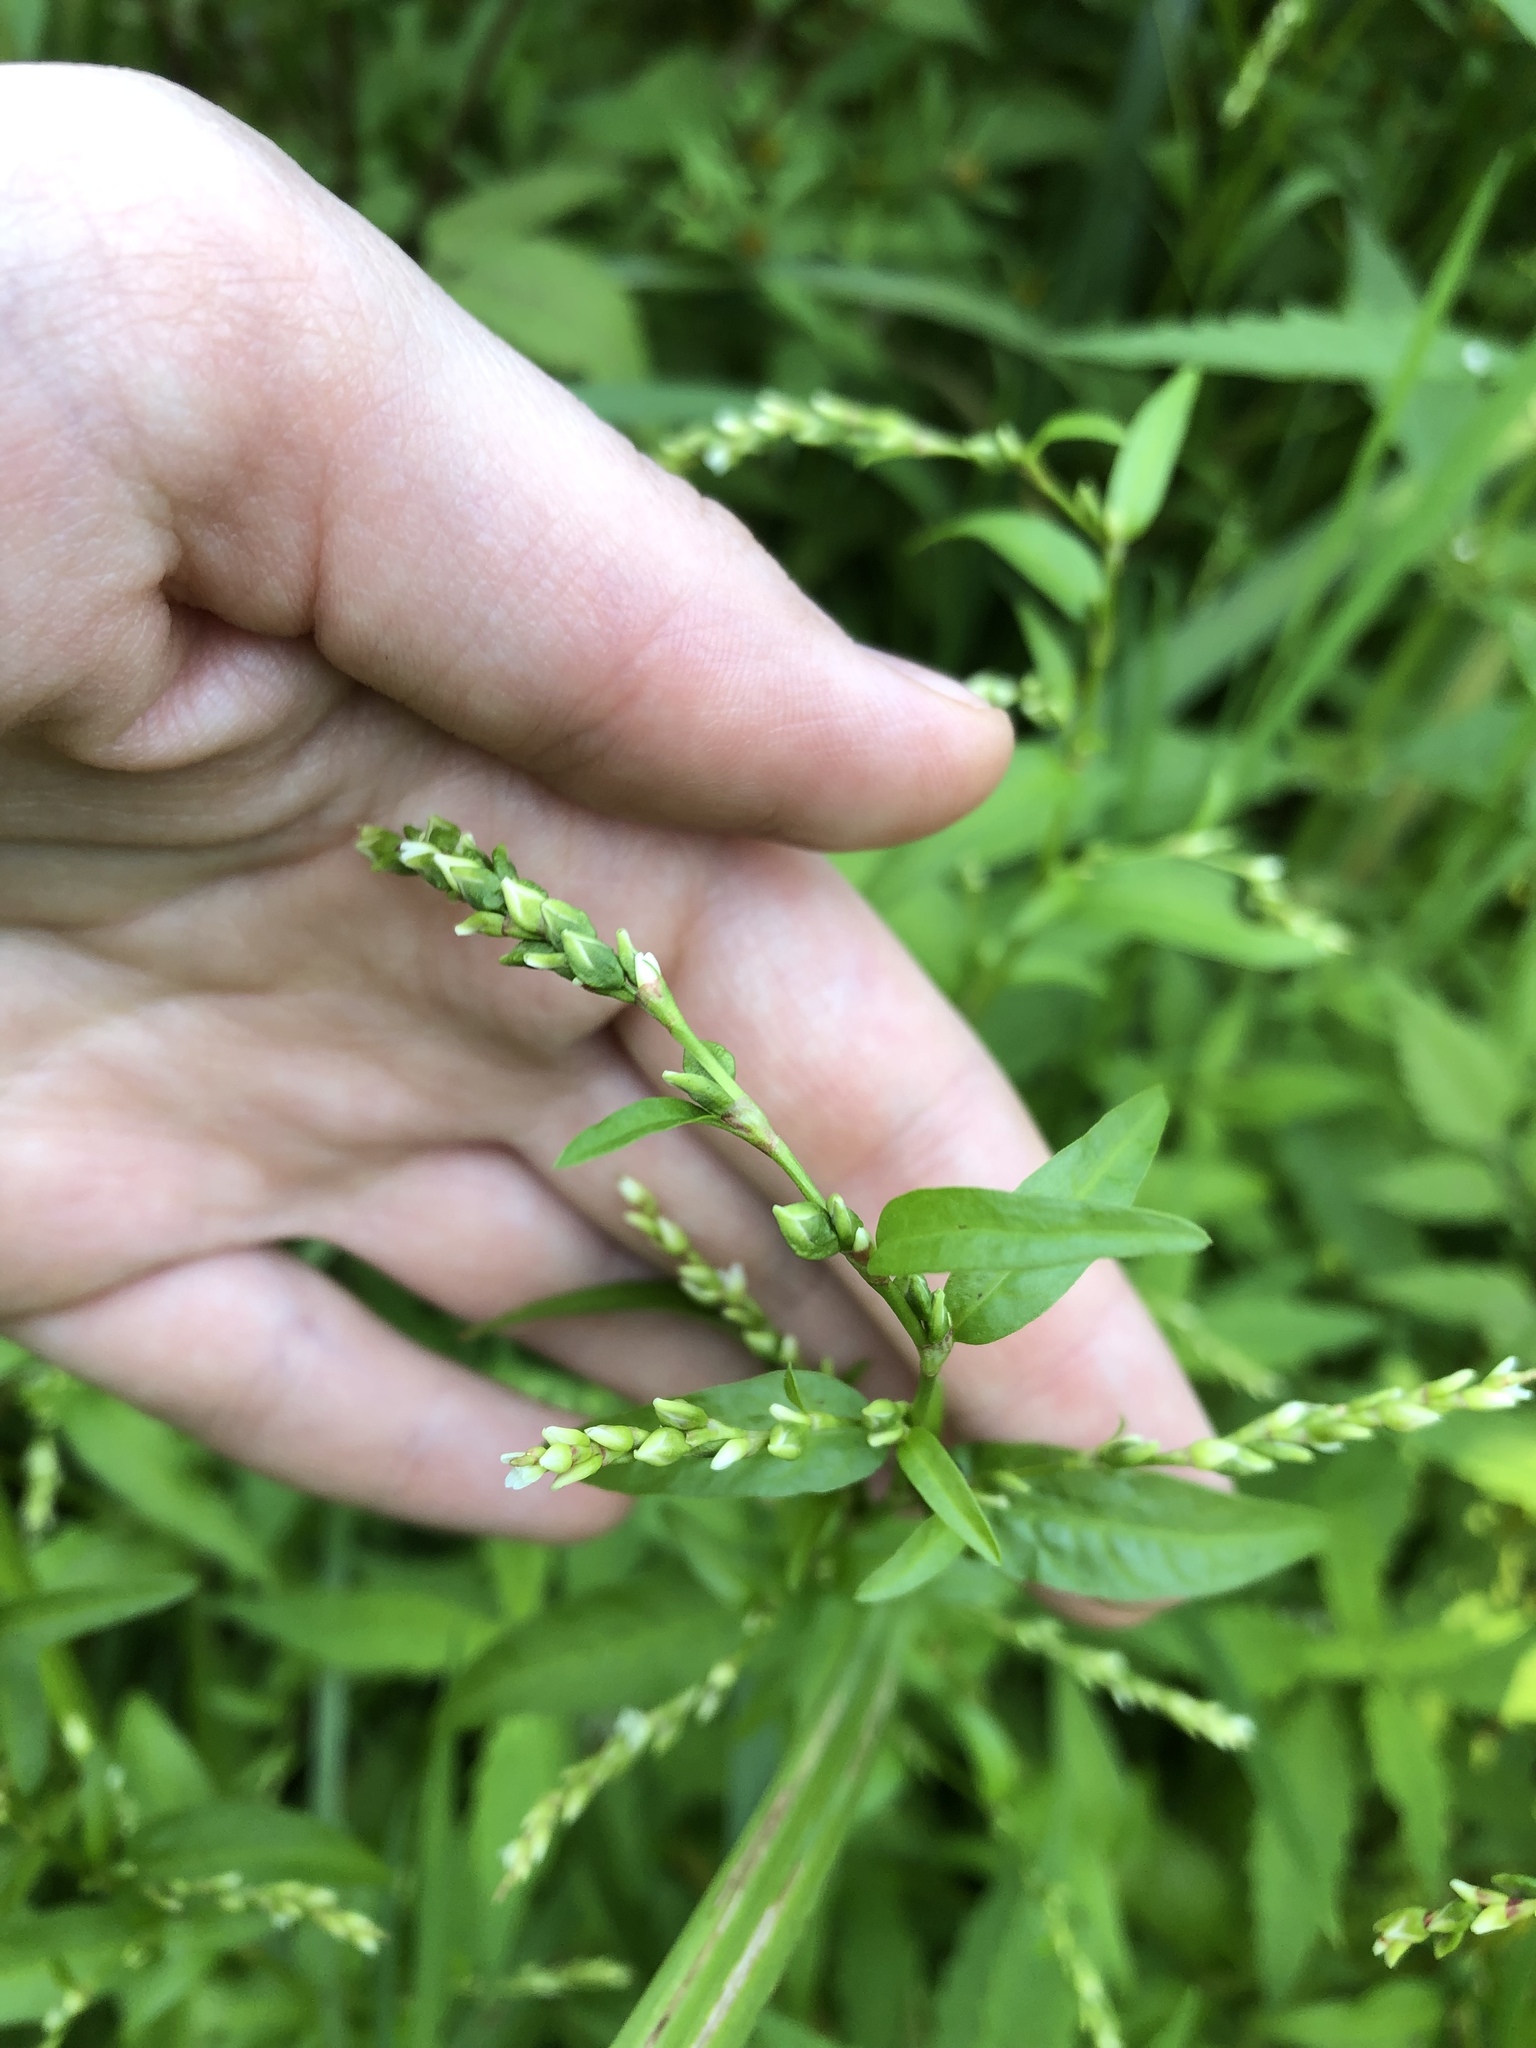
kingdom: Plantae
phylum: Tracheophyta
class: Magnoliopsida
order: Caryophyllales
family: Polygonaceae
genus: Persicaria
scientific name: Persicaria hydropiper
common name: Water-pepper
